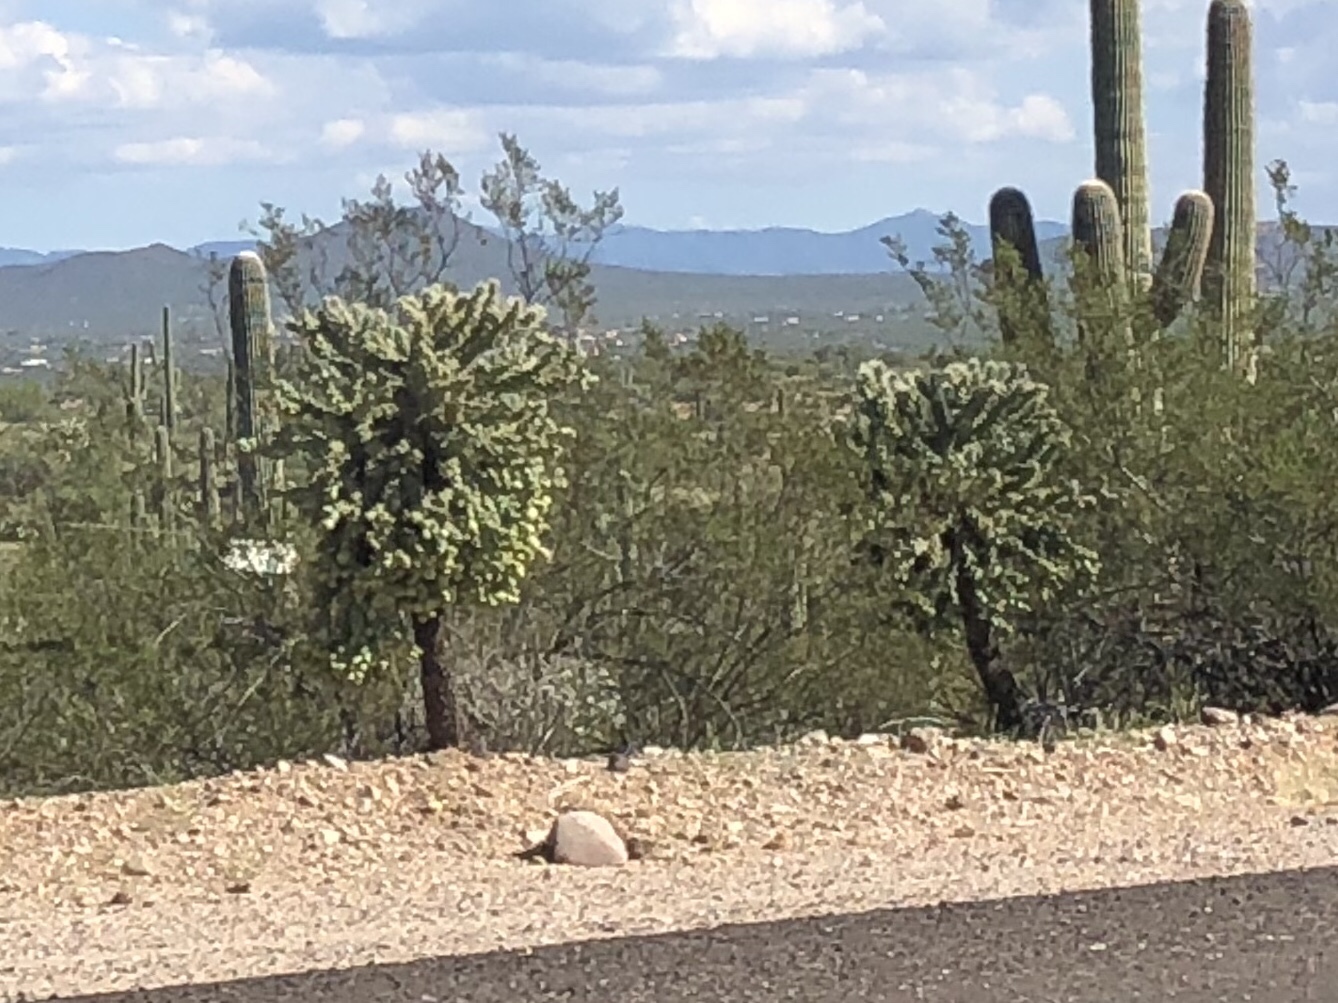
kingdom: Plantae
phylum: Tracheophyta
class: Magnoliopsida
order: Caryophyllales
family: Cactaceae
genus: Cylindropuntia
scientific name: Cylindropuntia fulgida
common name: Jumping cholla
